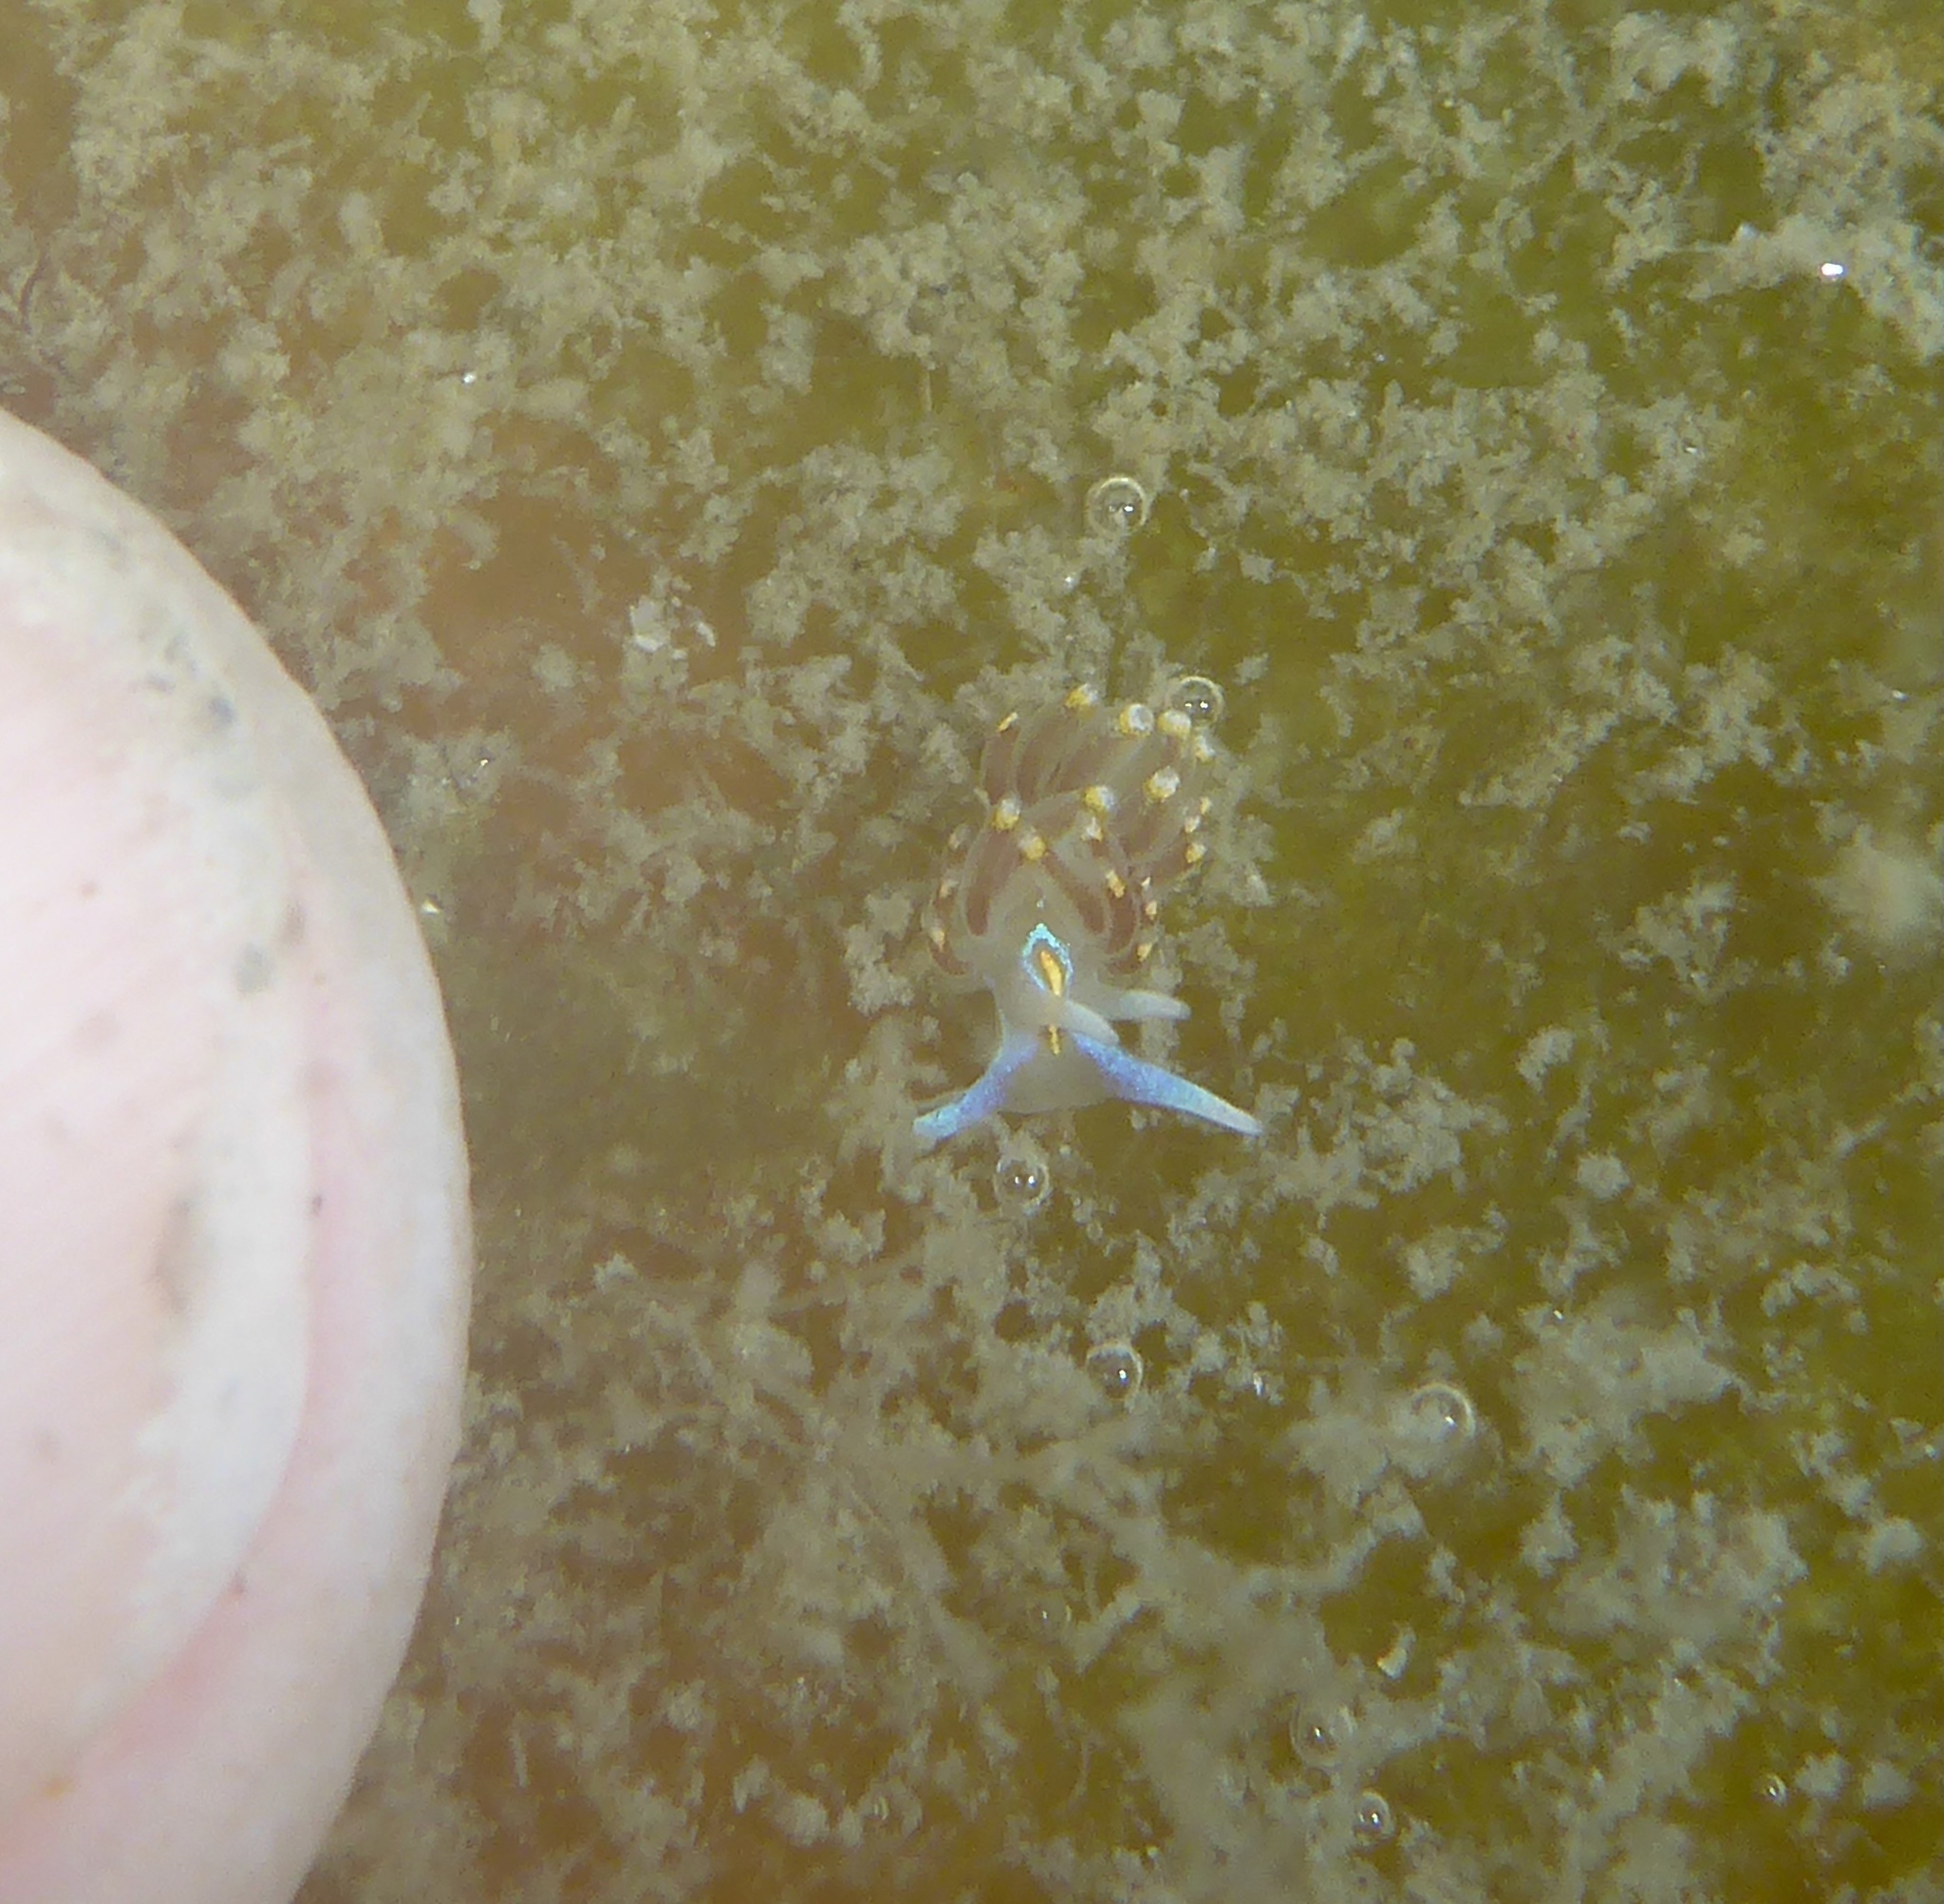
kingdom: Animalia
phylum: Mollusca
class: Gastropoda
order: Nudibranchia
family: Myrrhinidae
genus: Hermissenda
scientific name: Hermissenda opalescens
